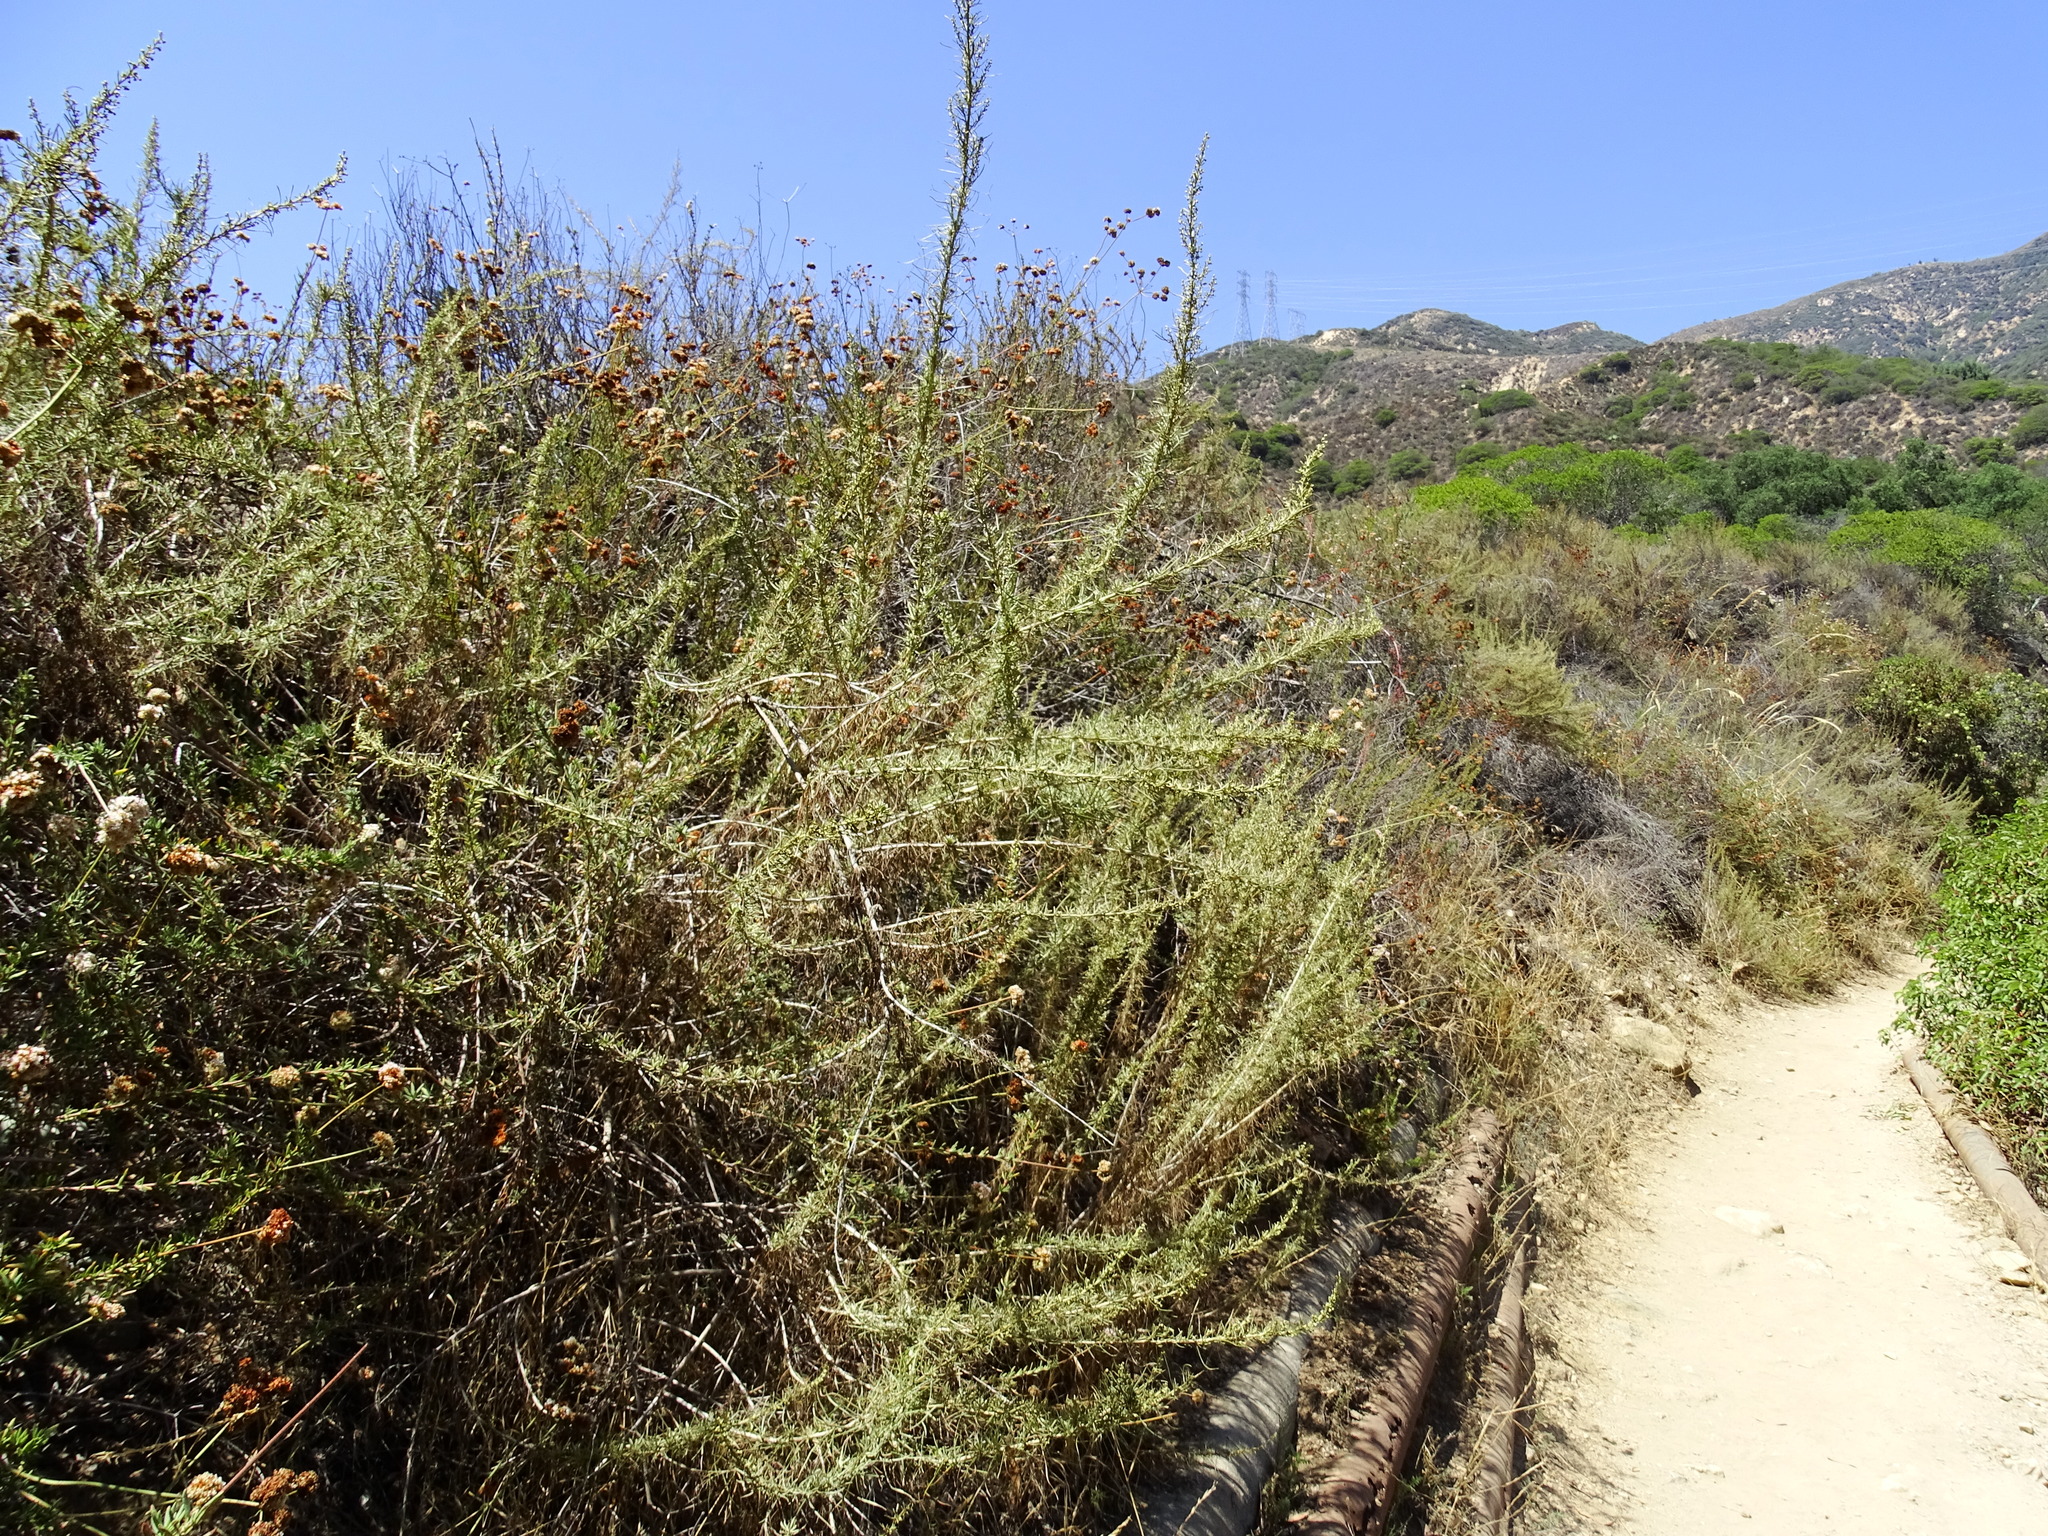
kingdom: Plantae
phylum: Tracheophyta
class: Magnoliopsida
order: Asterales
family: Asteraceae
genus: Artemisia
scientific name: Artemisia californica
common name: California sagebrush
